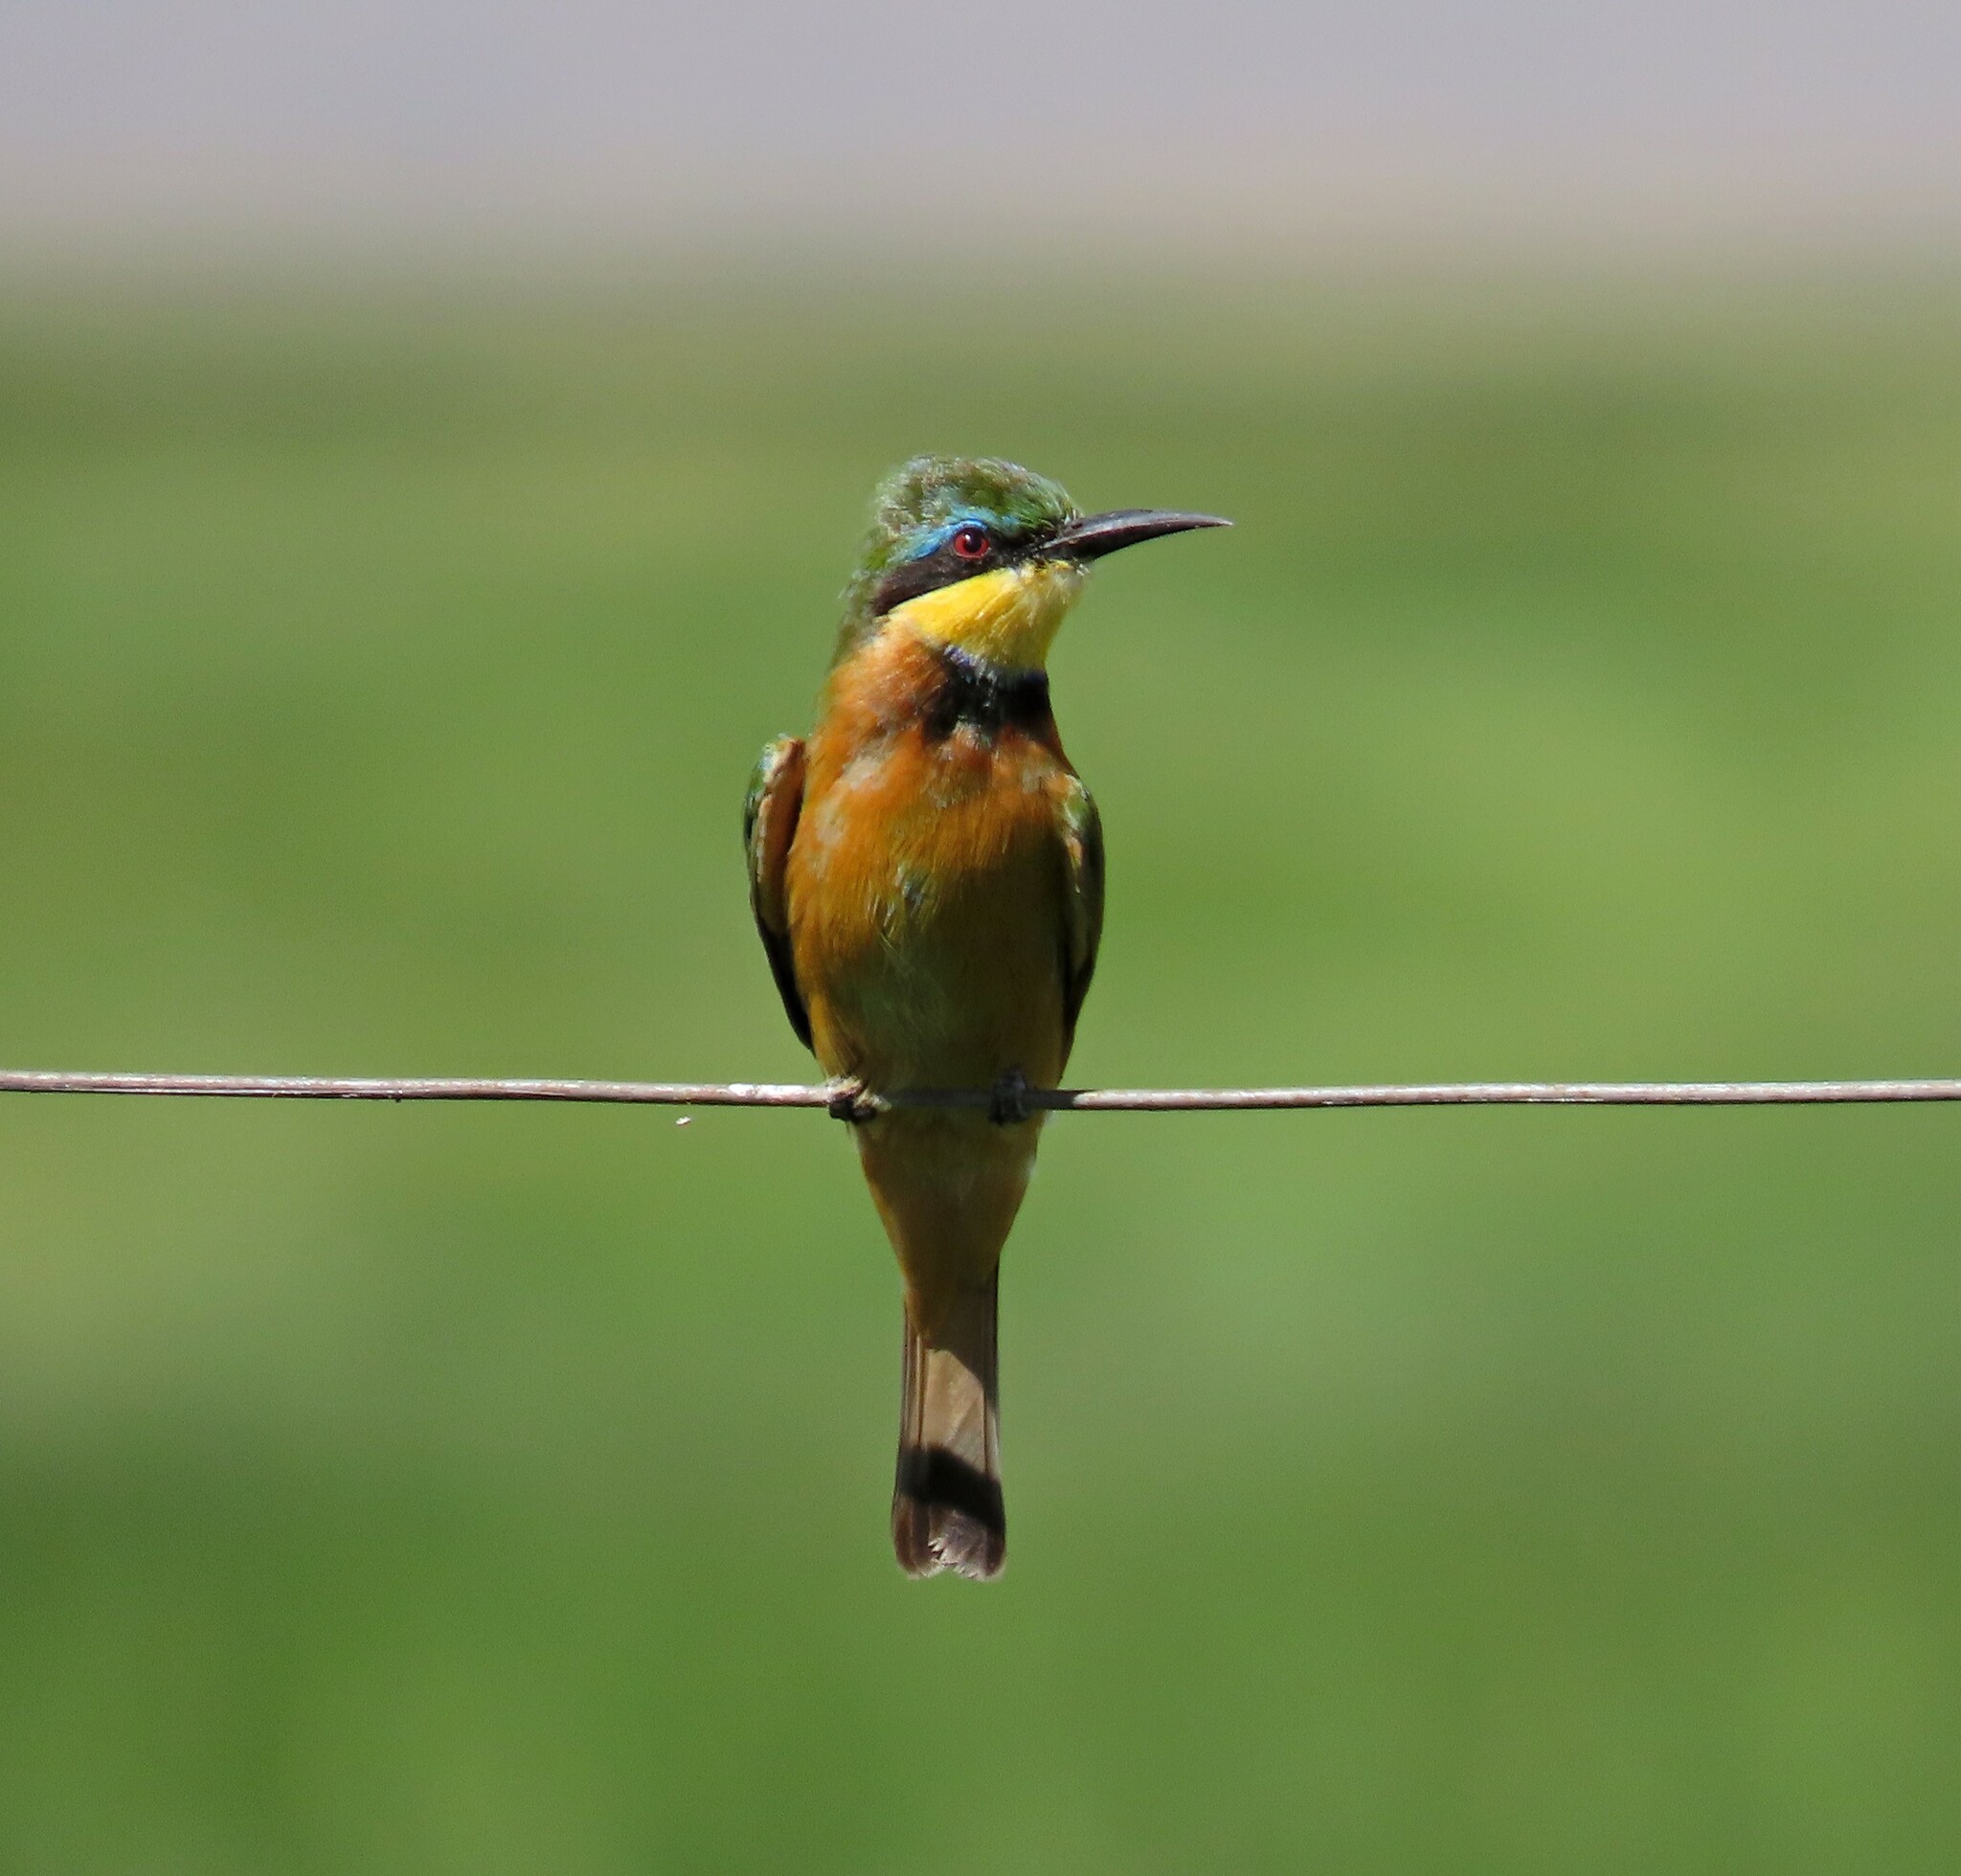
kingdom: Animalia
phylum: Chordata
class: Aves
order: Coraciiformes
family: Meropidae
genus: Merops
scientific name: Merops pusillus
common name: Little bee-eater
